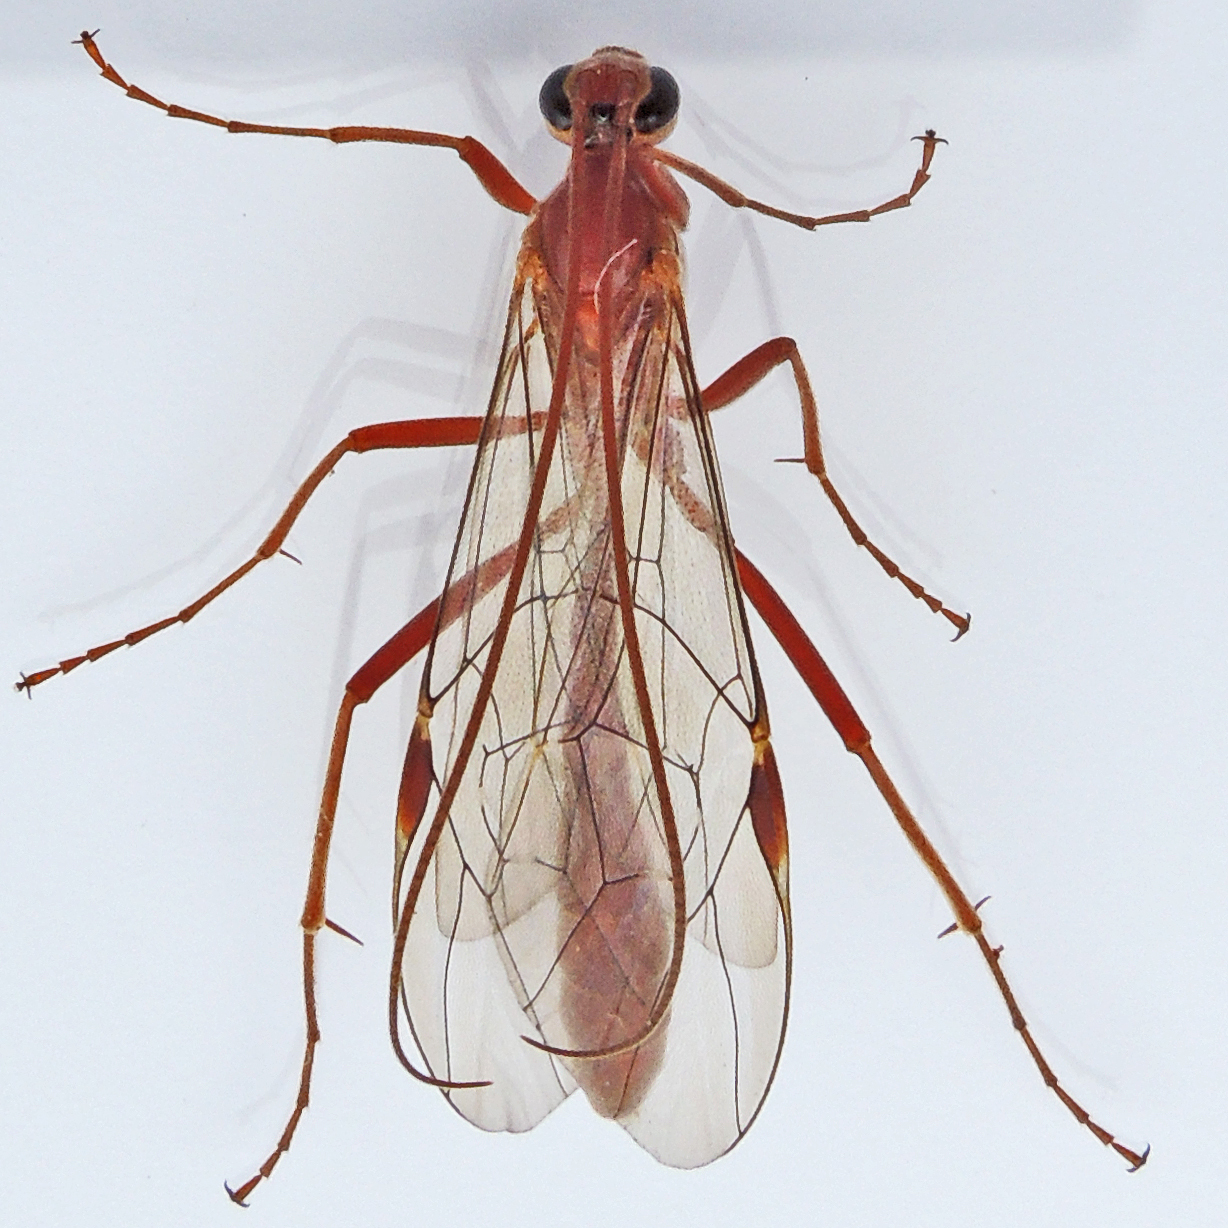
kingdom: Animalia
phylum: Arthropoda
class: Insecta
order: Hymenoptera
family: Ichneumonidae
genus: Ophion
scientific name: Ophion
